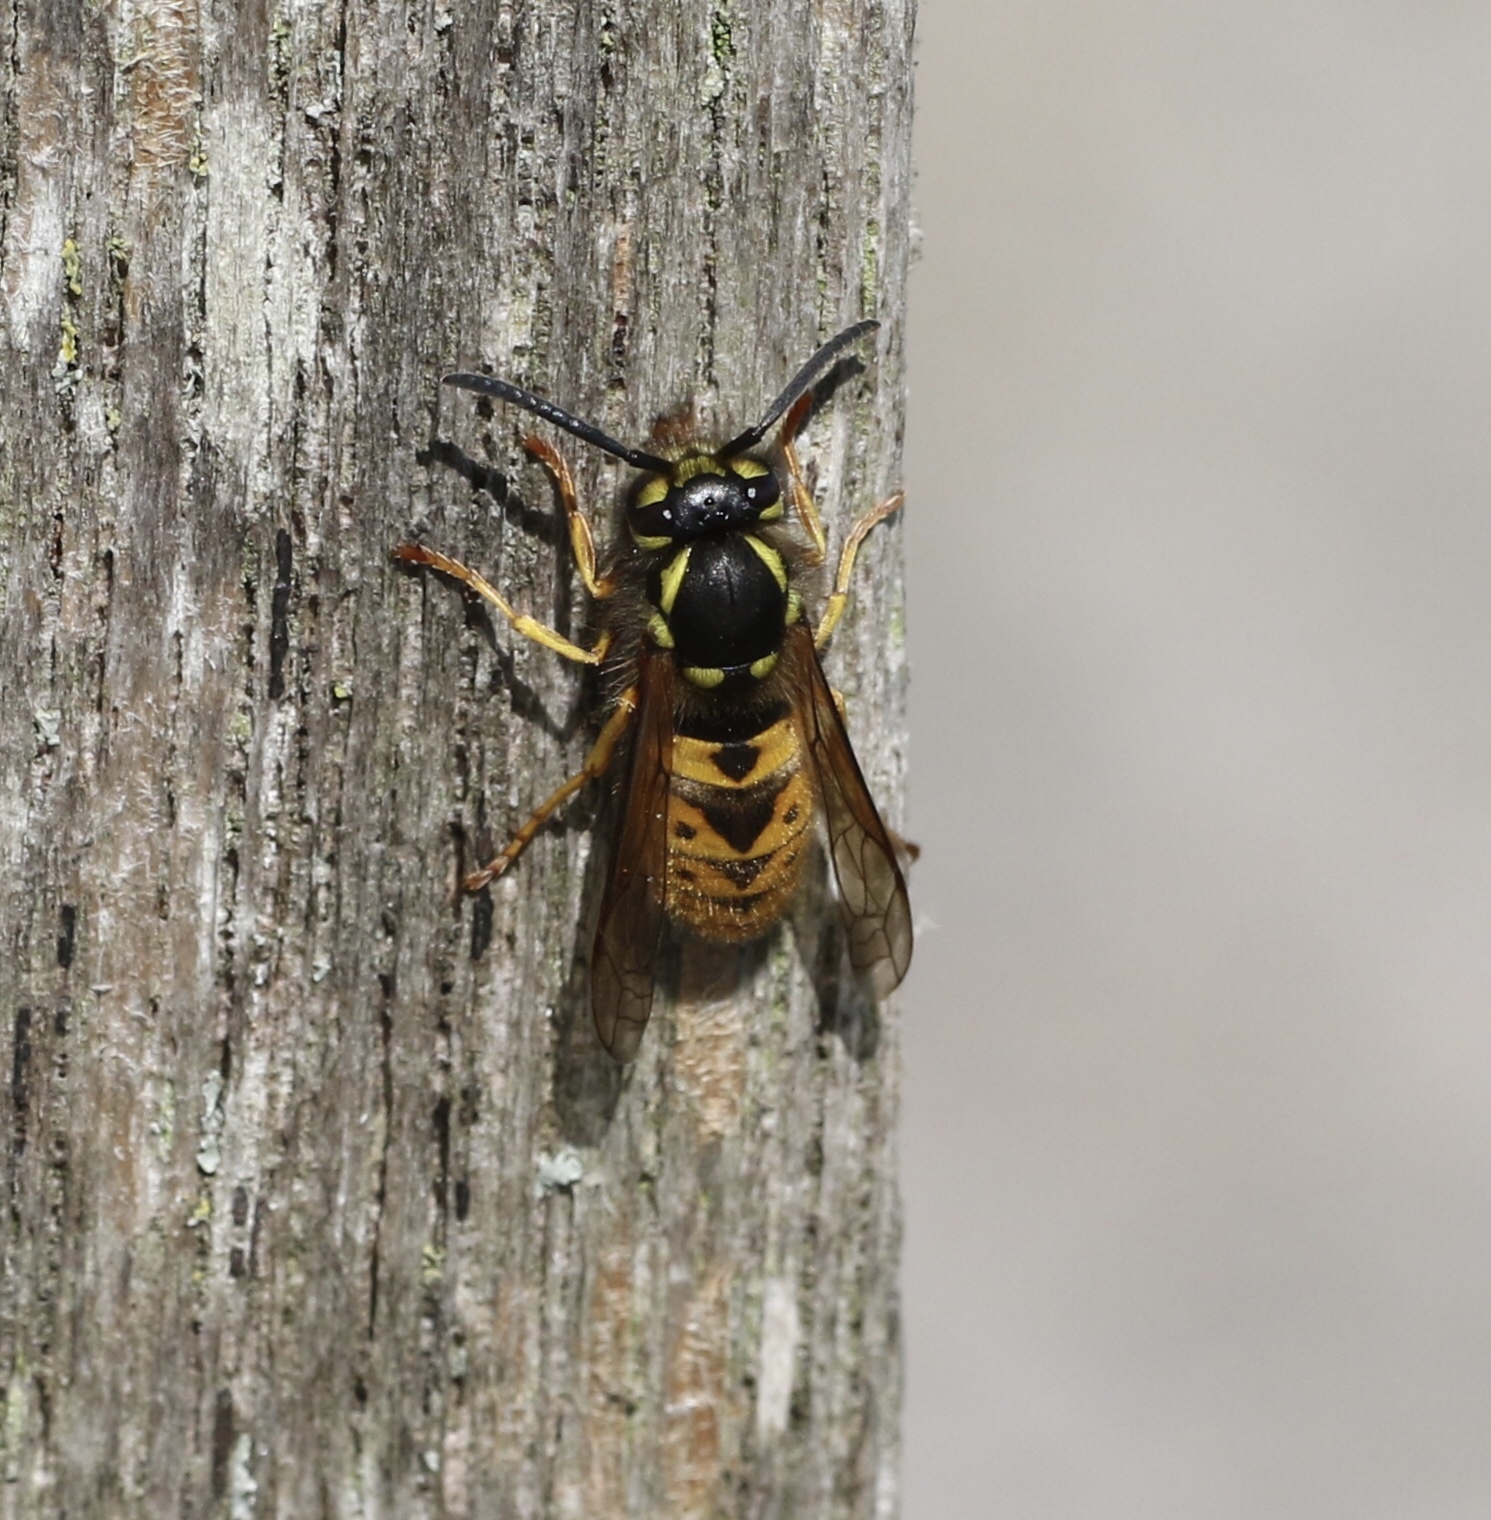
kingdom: Animalia
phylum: Arthropoda
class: Insecta
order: Hymenoptera
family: Vespidae
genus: Vespula
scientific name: Vespula germanica
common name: German wasp
